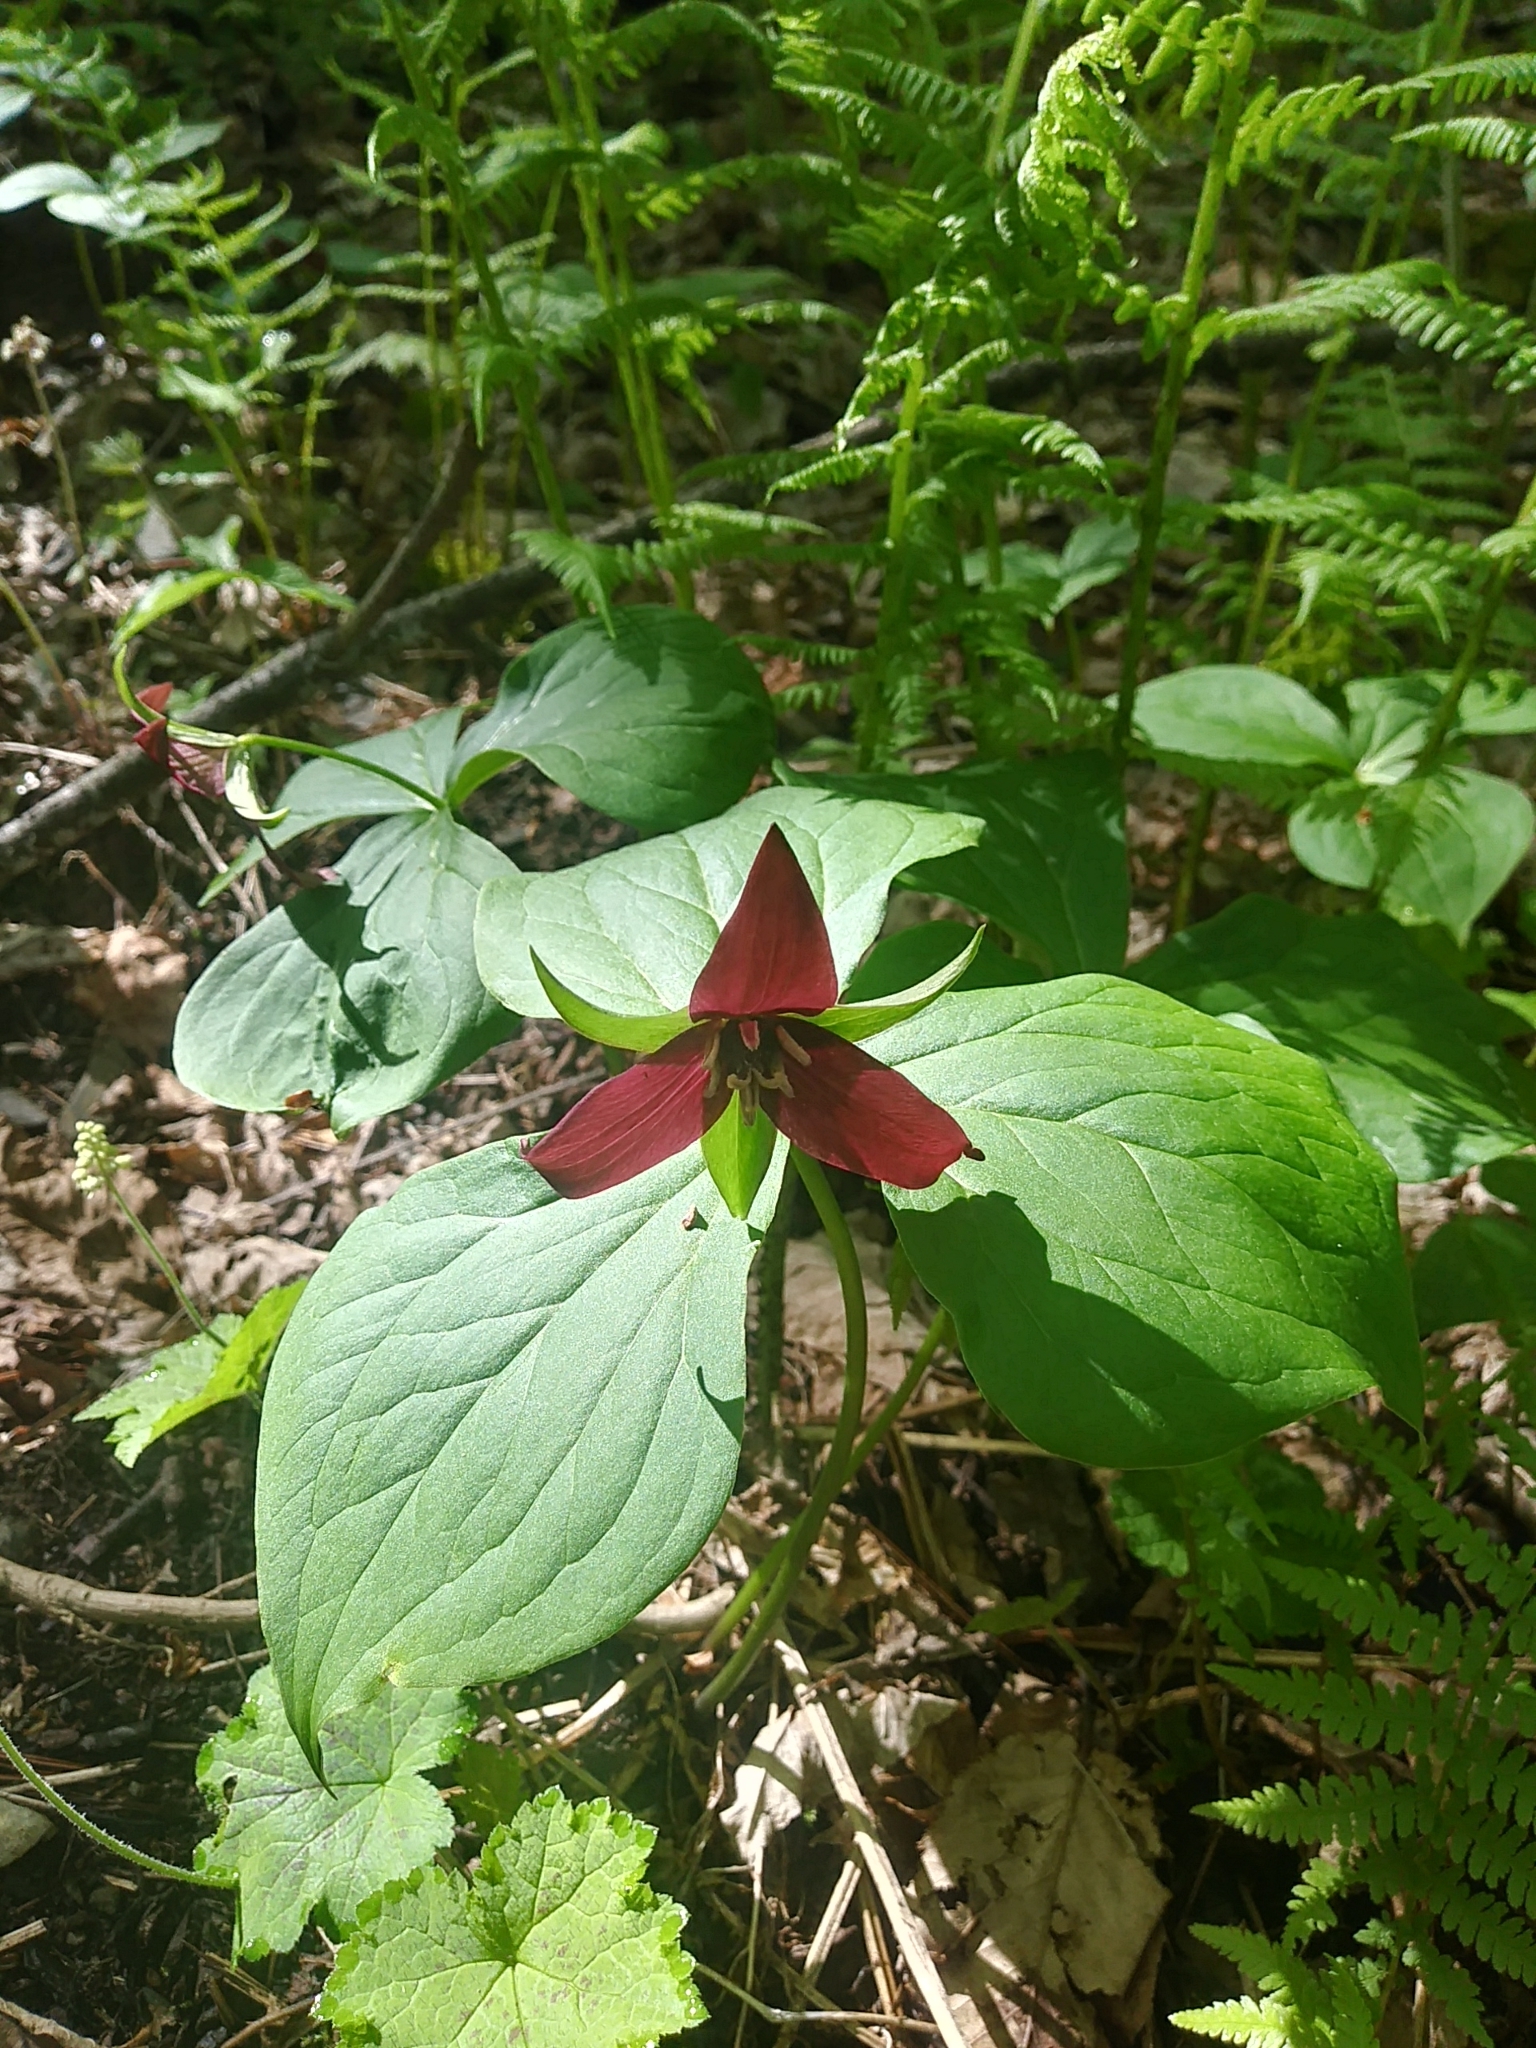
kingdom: Plantae
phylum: Tracheophyta
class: Liliopsida
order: Liliales
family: Melanthiaceae
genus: Trillium
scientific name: Trillium erectum
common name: Purple trillium
